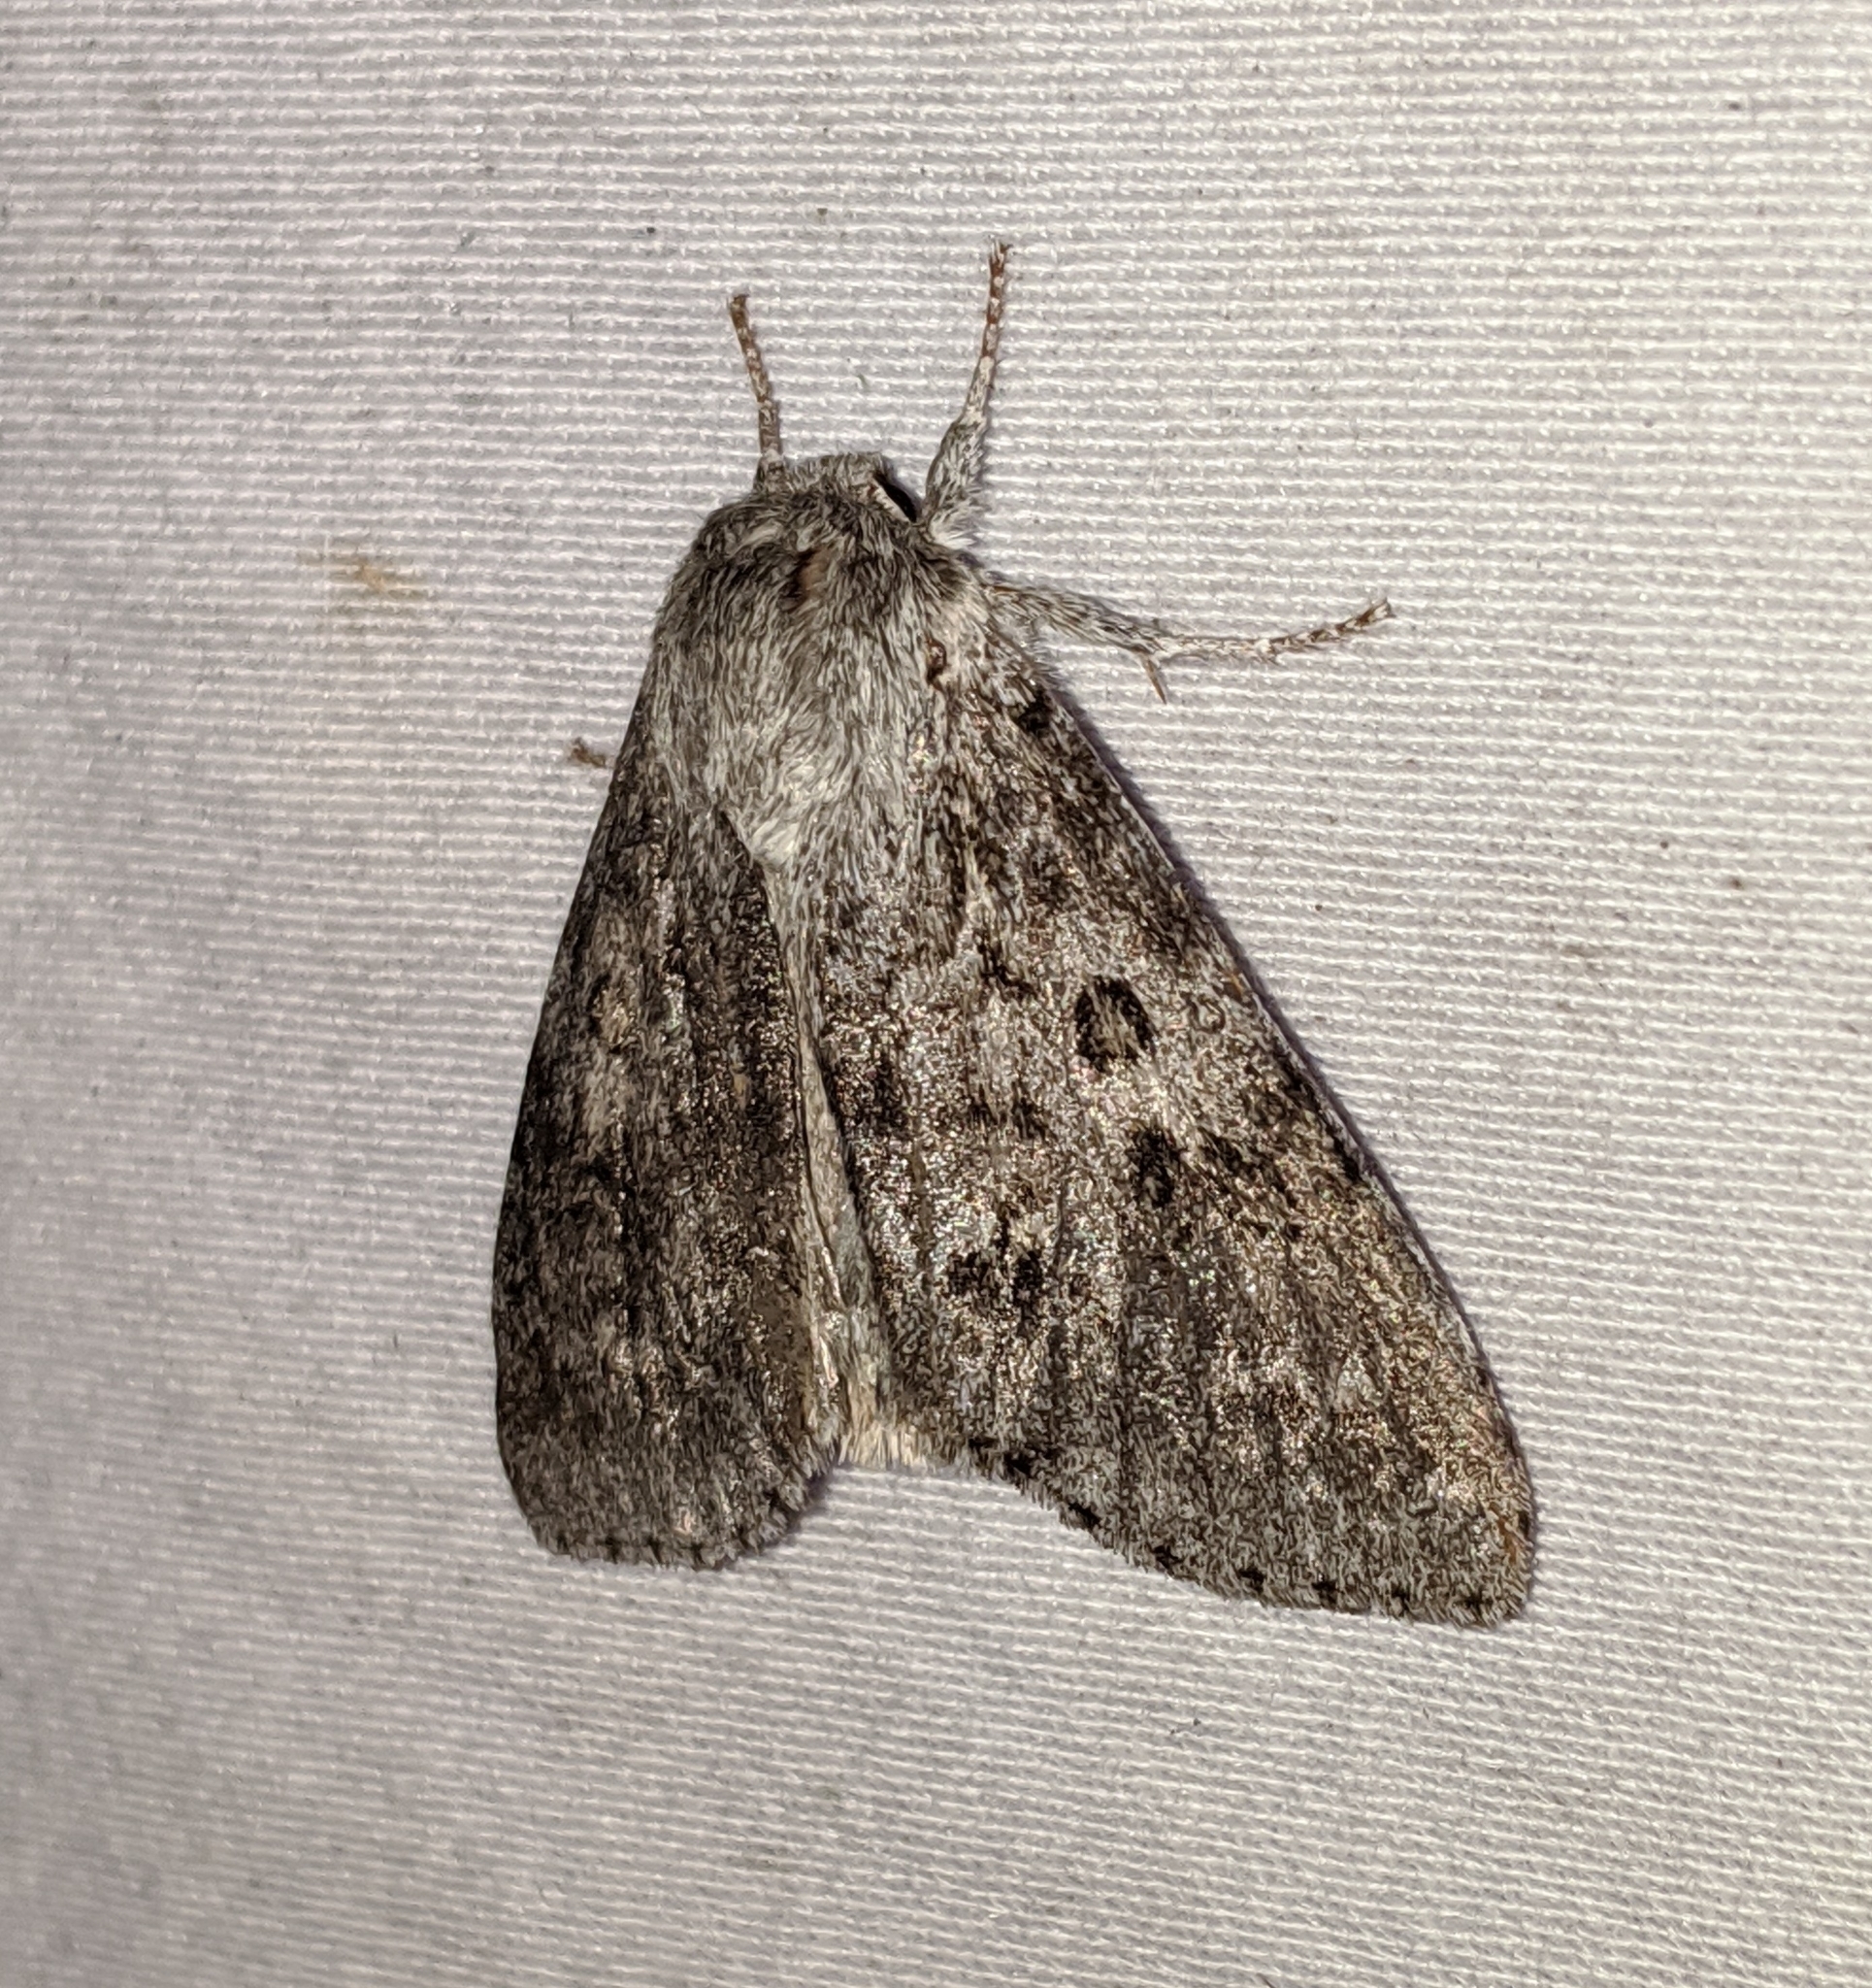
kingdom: Animalia
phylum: Arthropoda
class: Insecta
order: Lepidoptera
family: Noctuidae
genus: Acronicta
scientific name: Acronicta insita
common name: Large gray dagger
